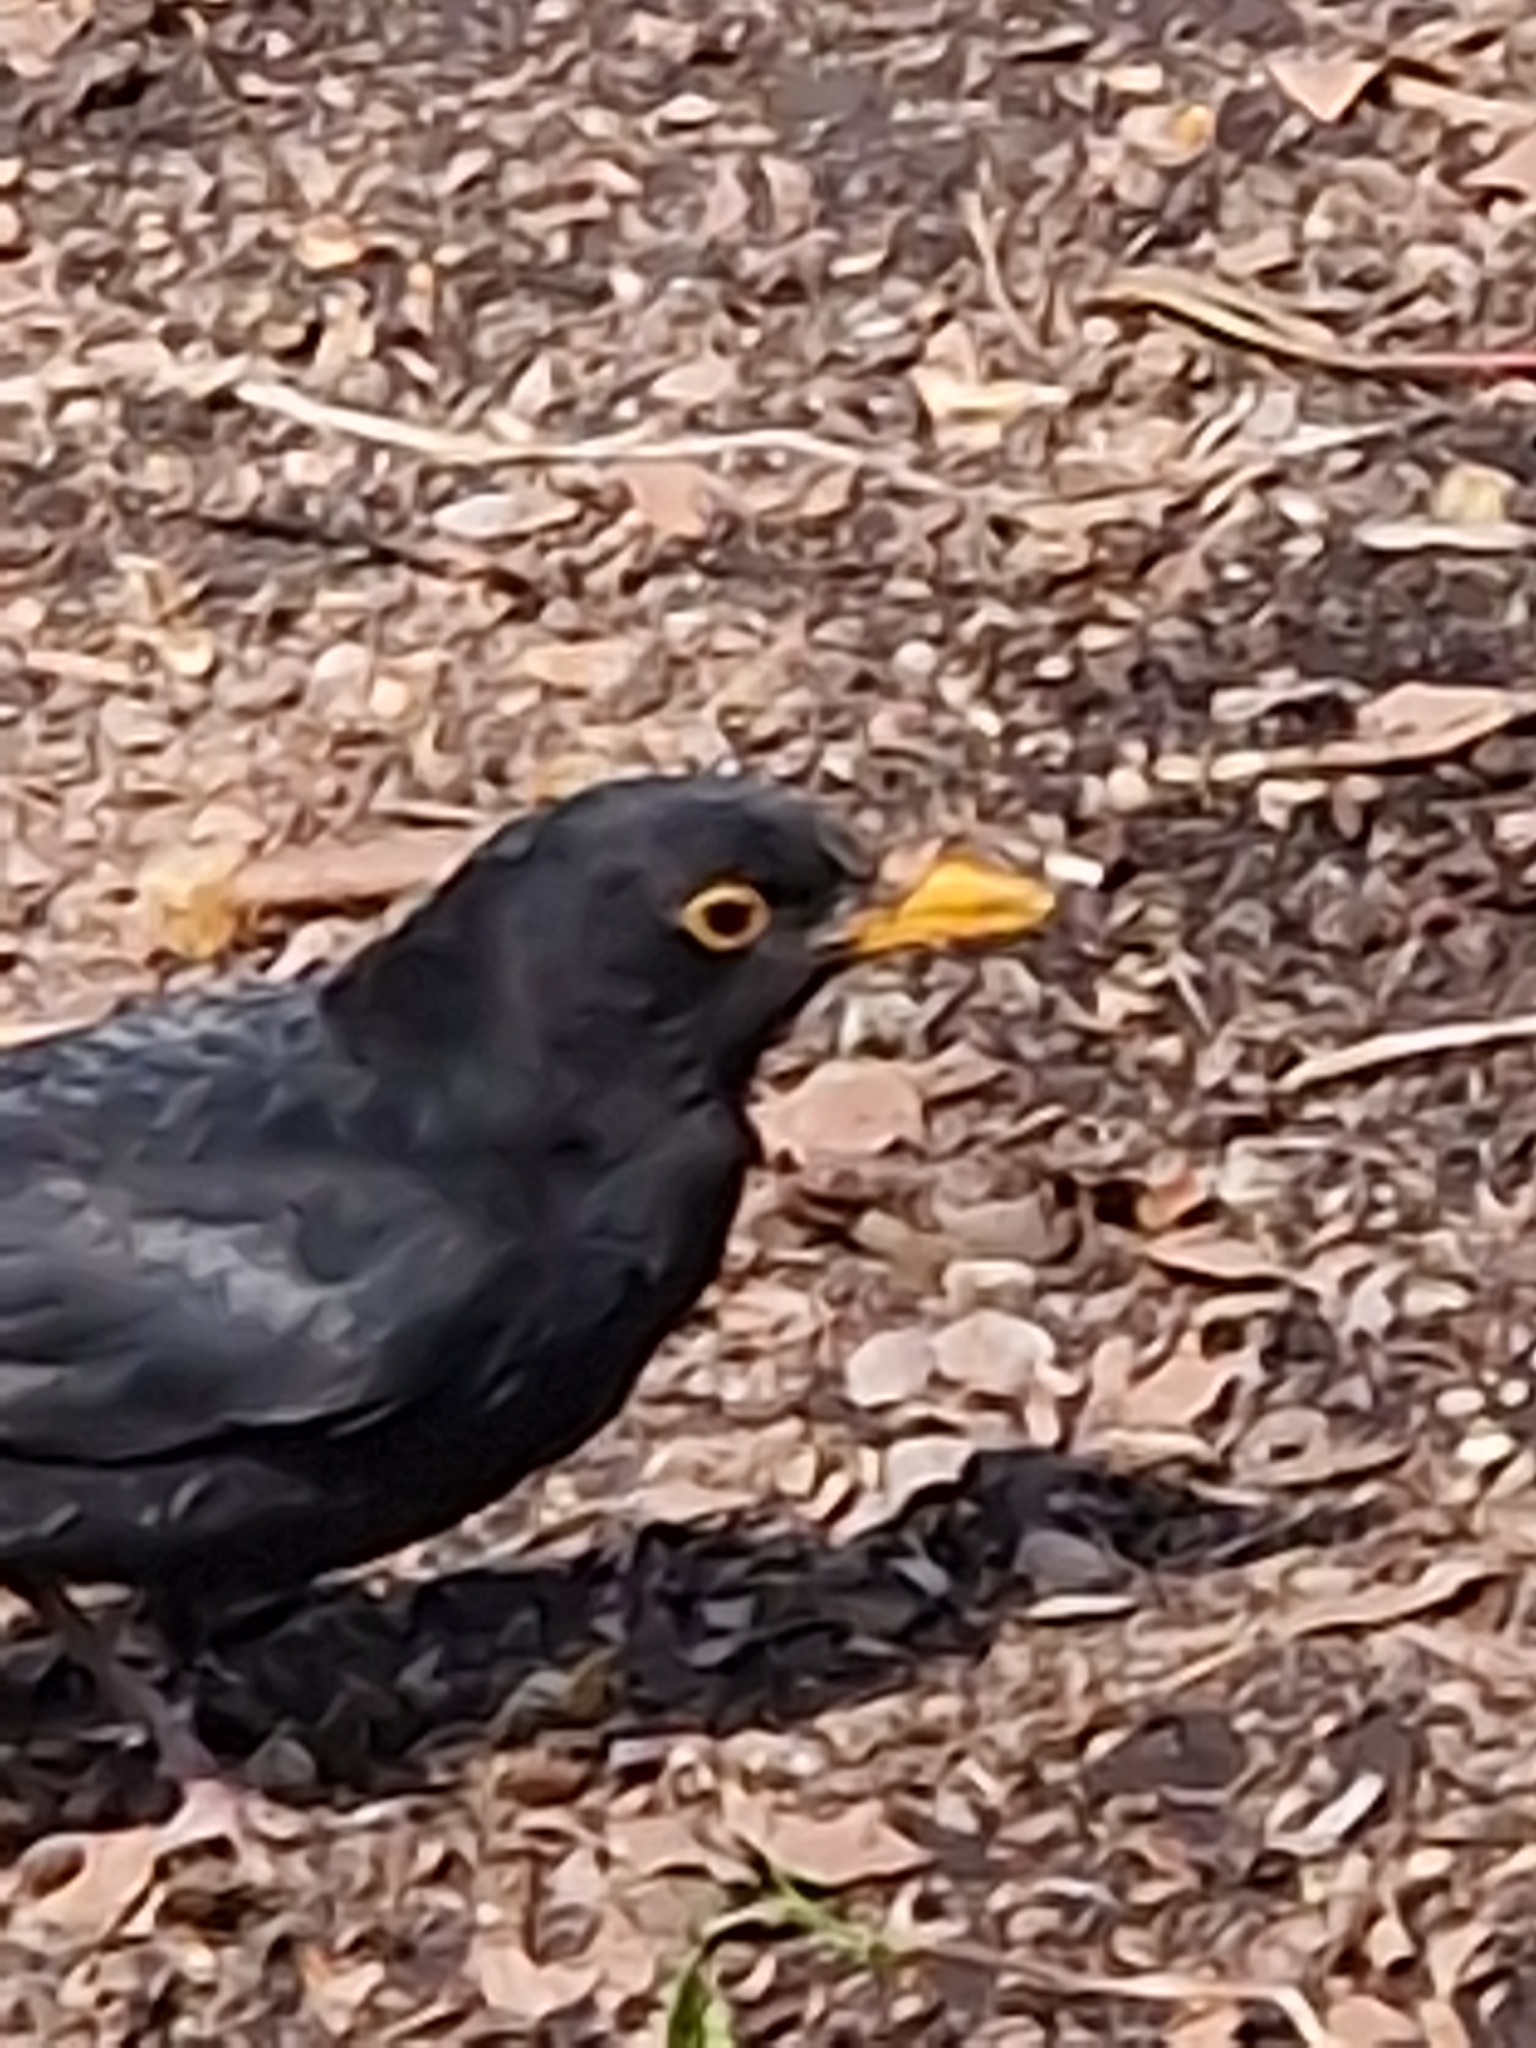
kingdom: Animalia
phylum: Chordata
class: Aves
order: Passeriformes
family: Turdidae
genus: Turdus
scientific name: Turdus merula
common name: Common blackbird
